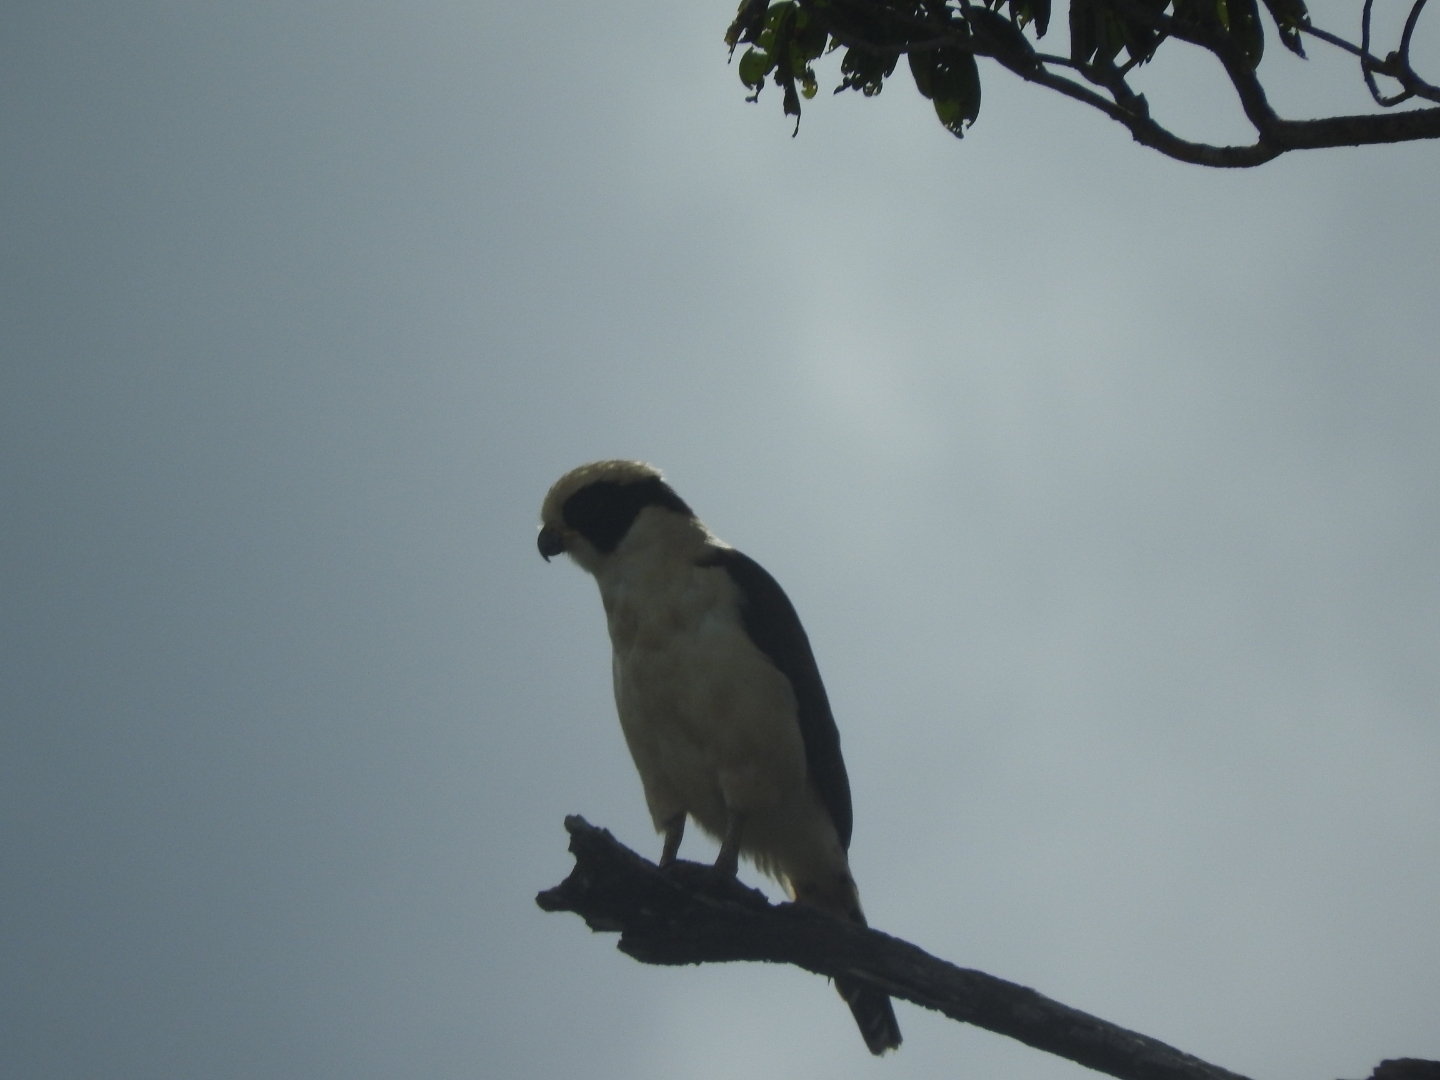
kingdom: Animalia
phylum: Chordata
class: Aves
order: Falconiformes
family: Falconidae
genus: Herpetotheres
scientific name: Herpetotheres cachinnans
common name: Laughing falcon
